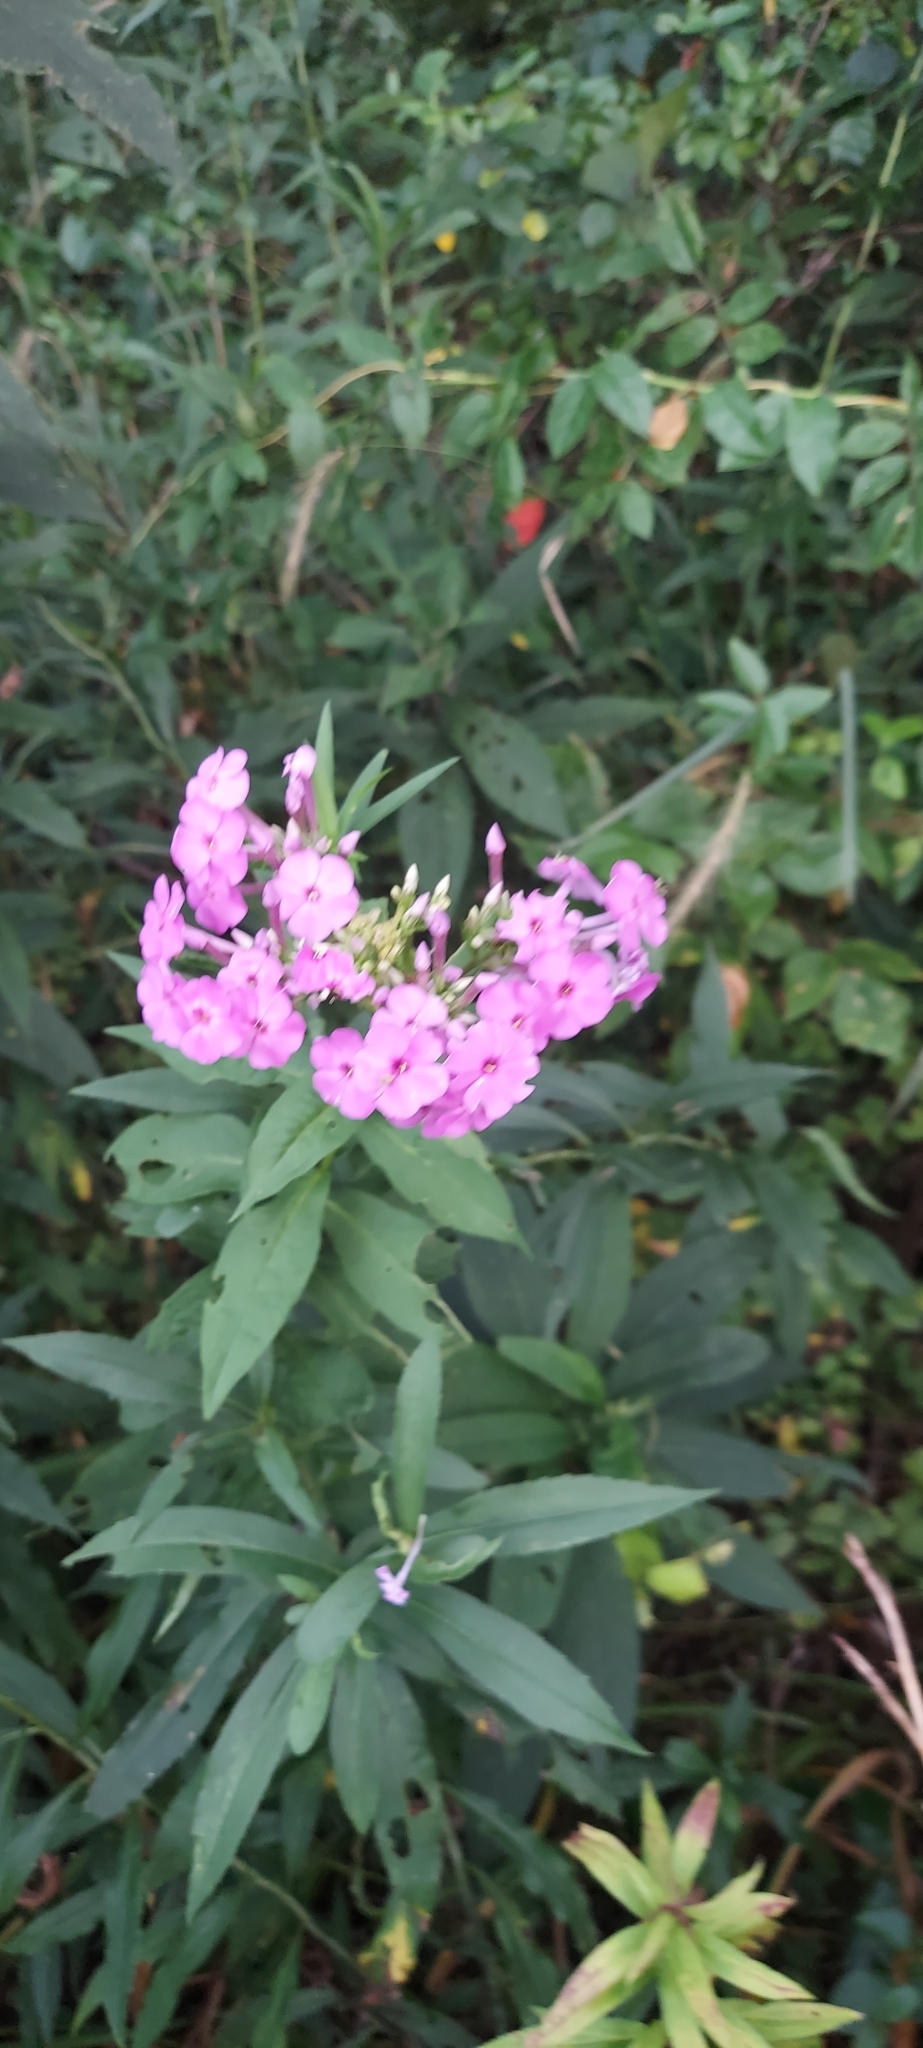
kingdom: Plantae
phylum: Tracheophyta
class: Magnoliopsida
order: Ericales
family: Polemoniaceae
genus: Phlox
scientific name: Phlox paniculata
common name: Fall phlox
